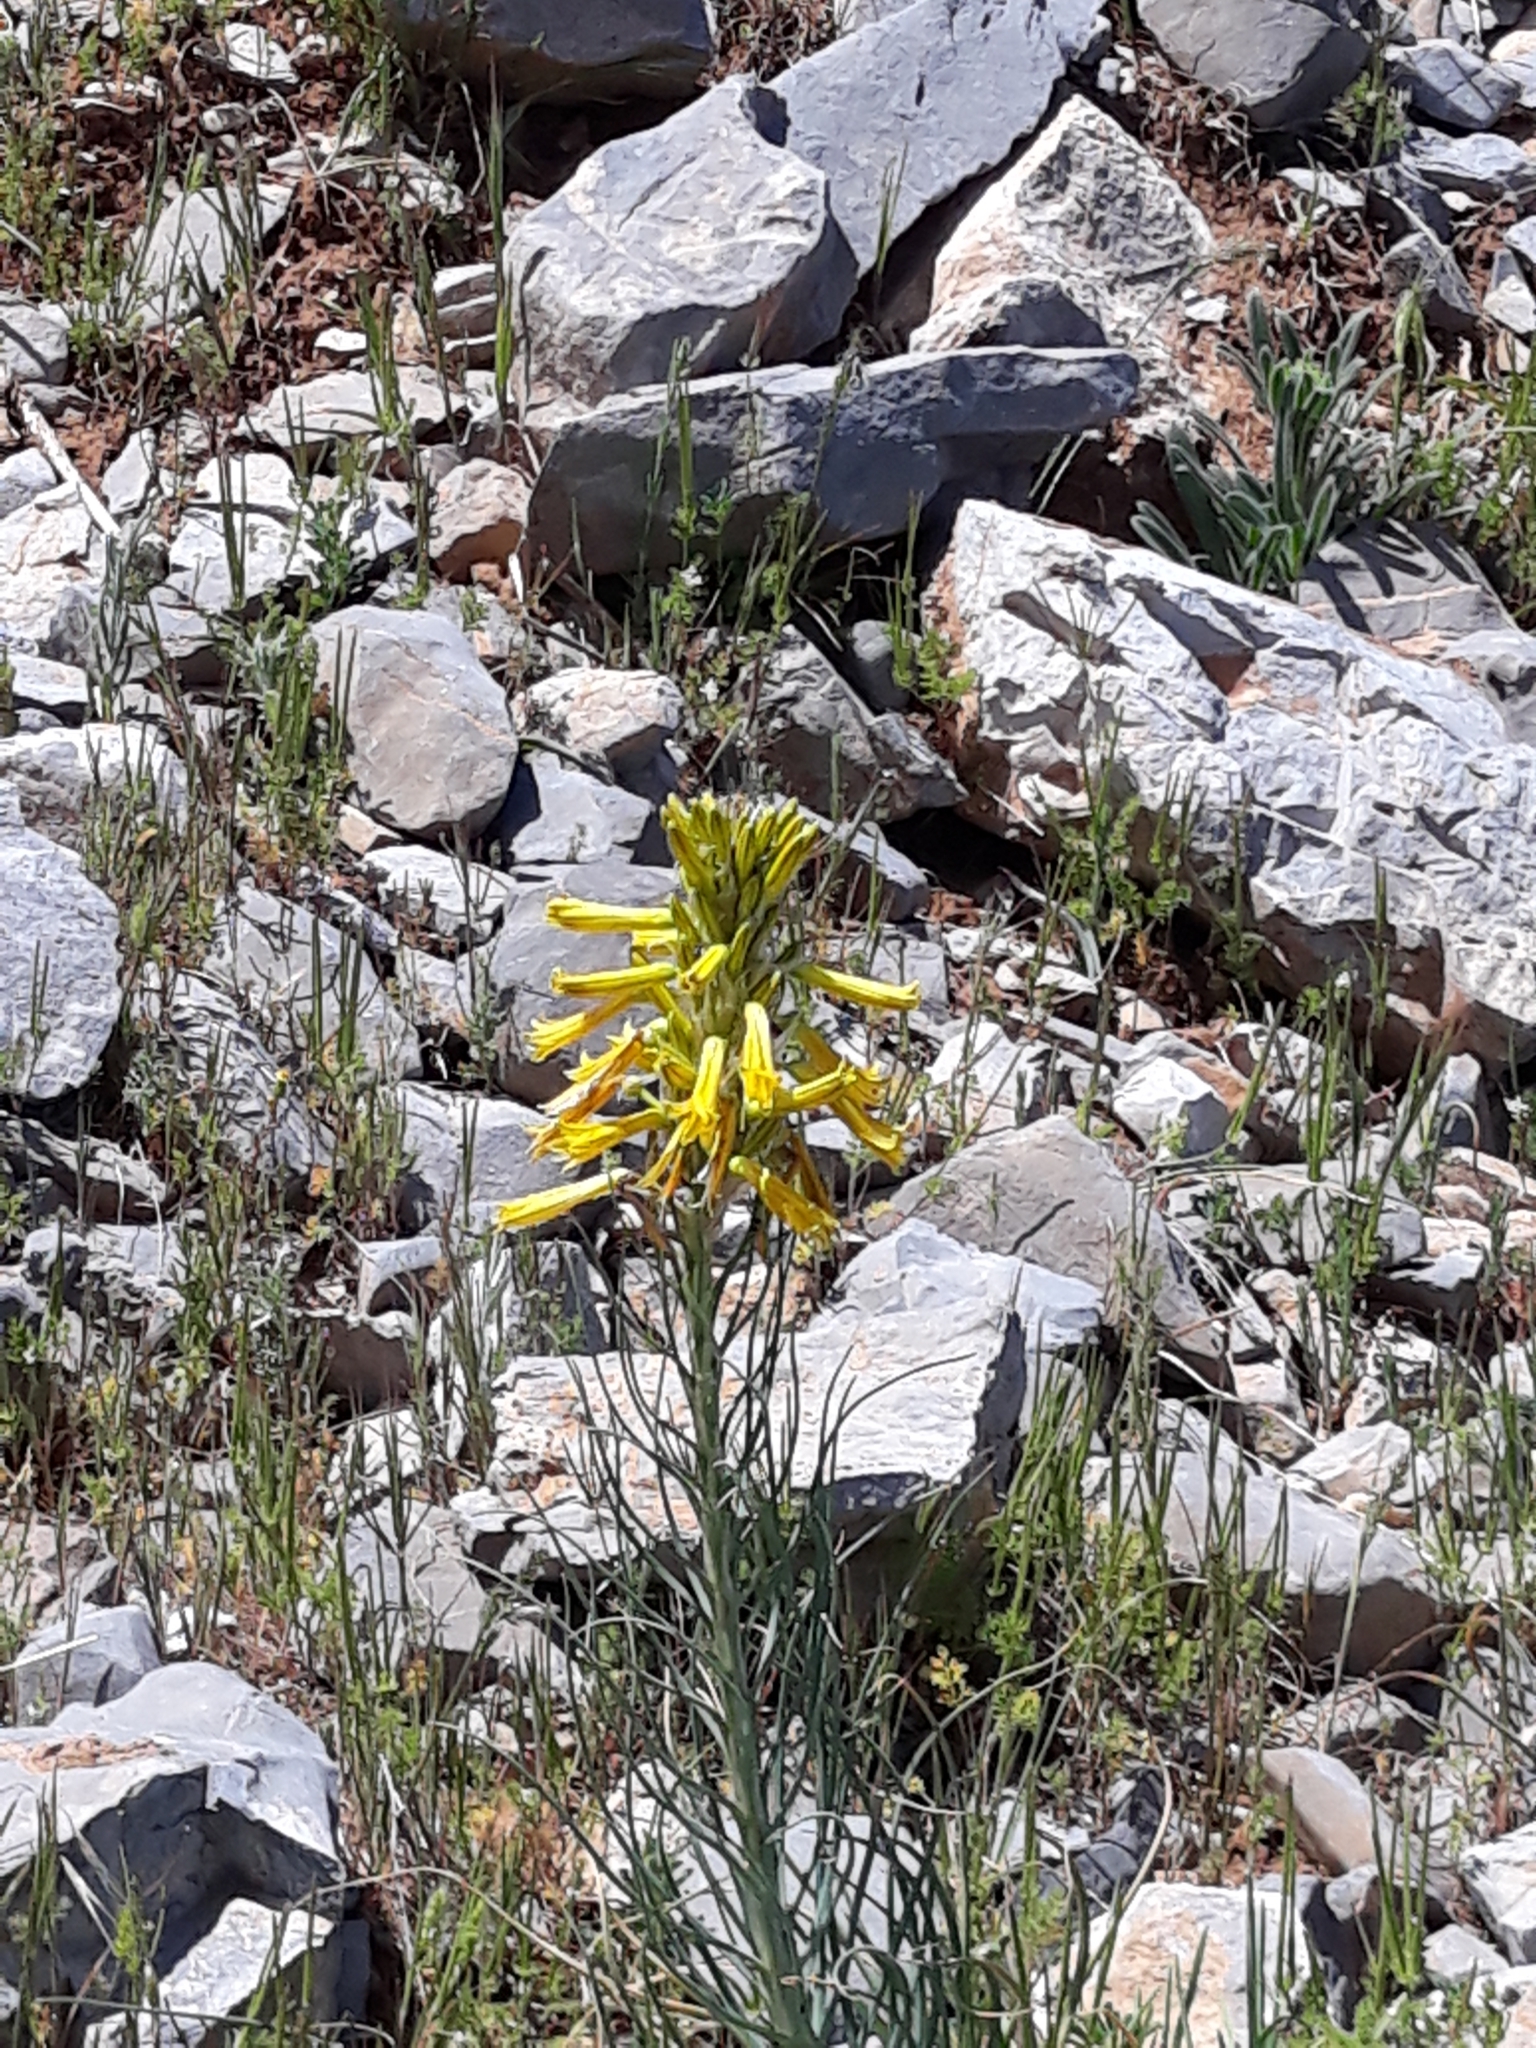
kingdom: Plantae
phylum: Tracheophyta
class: Liliopsida
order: Asparagales
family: Asphodelaceae
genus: Asphodeline
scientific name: Asphodeline lutea
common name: Yellow asphodel
